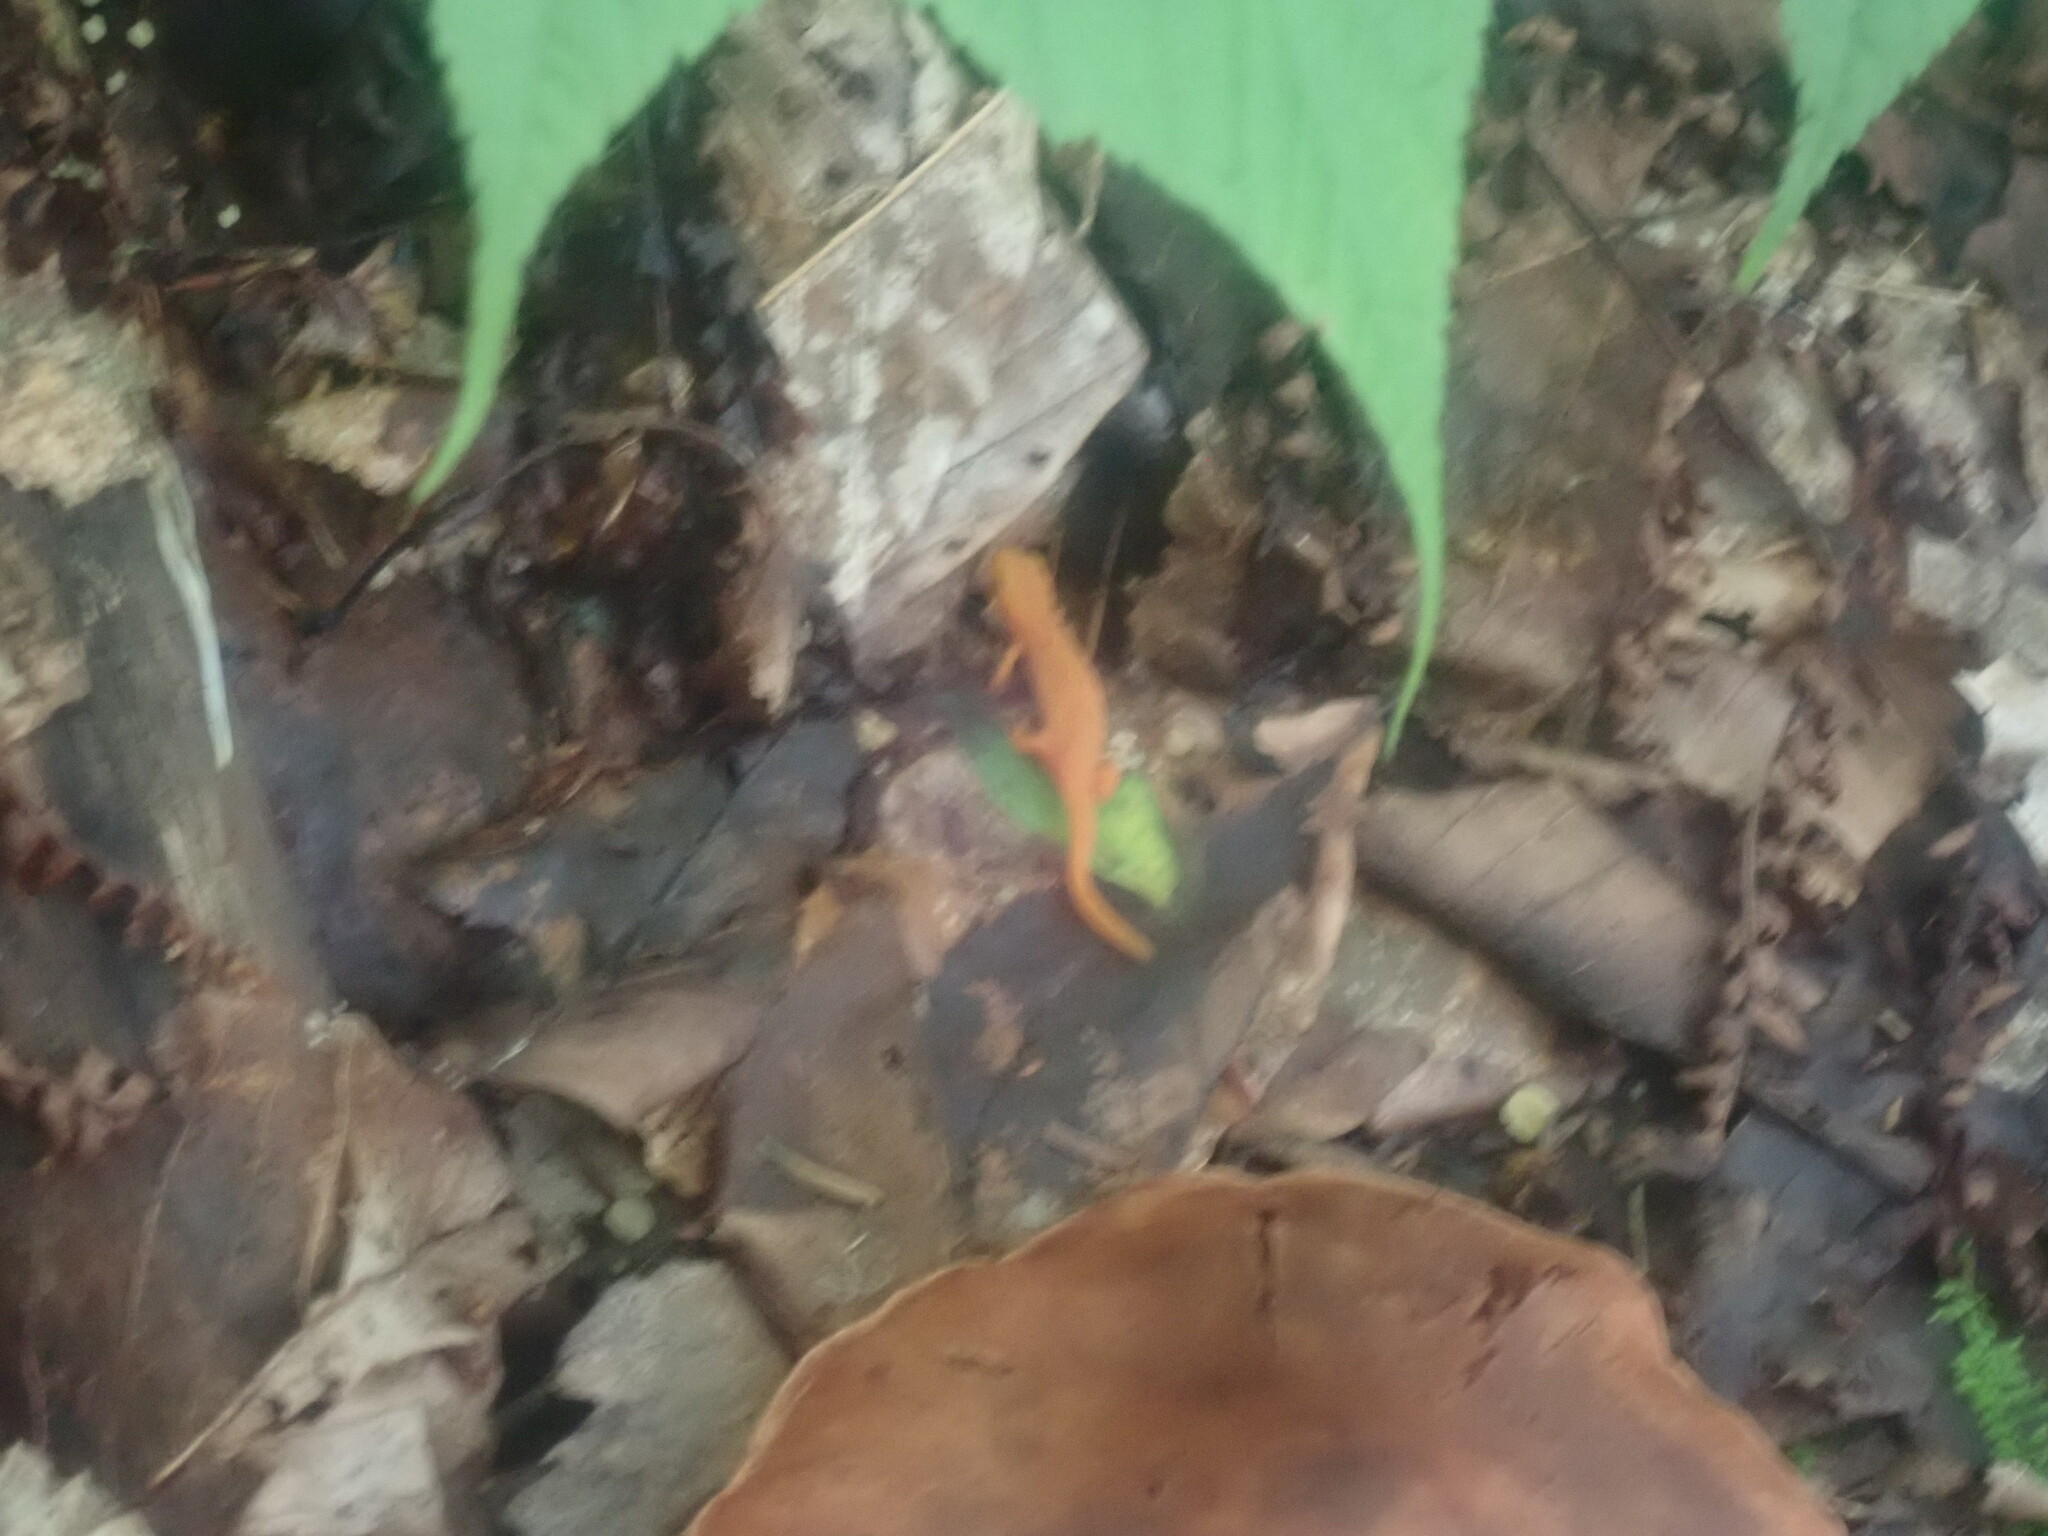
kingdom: Animalia
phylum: Chordata
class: Amphibia
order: Caudata
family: Salamandridae
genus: Notophthalmus
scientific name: Notophthalmus viridescens
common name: Eastern newt
